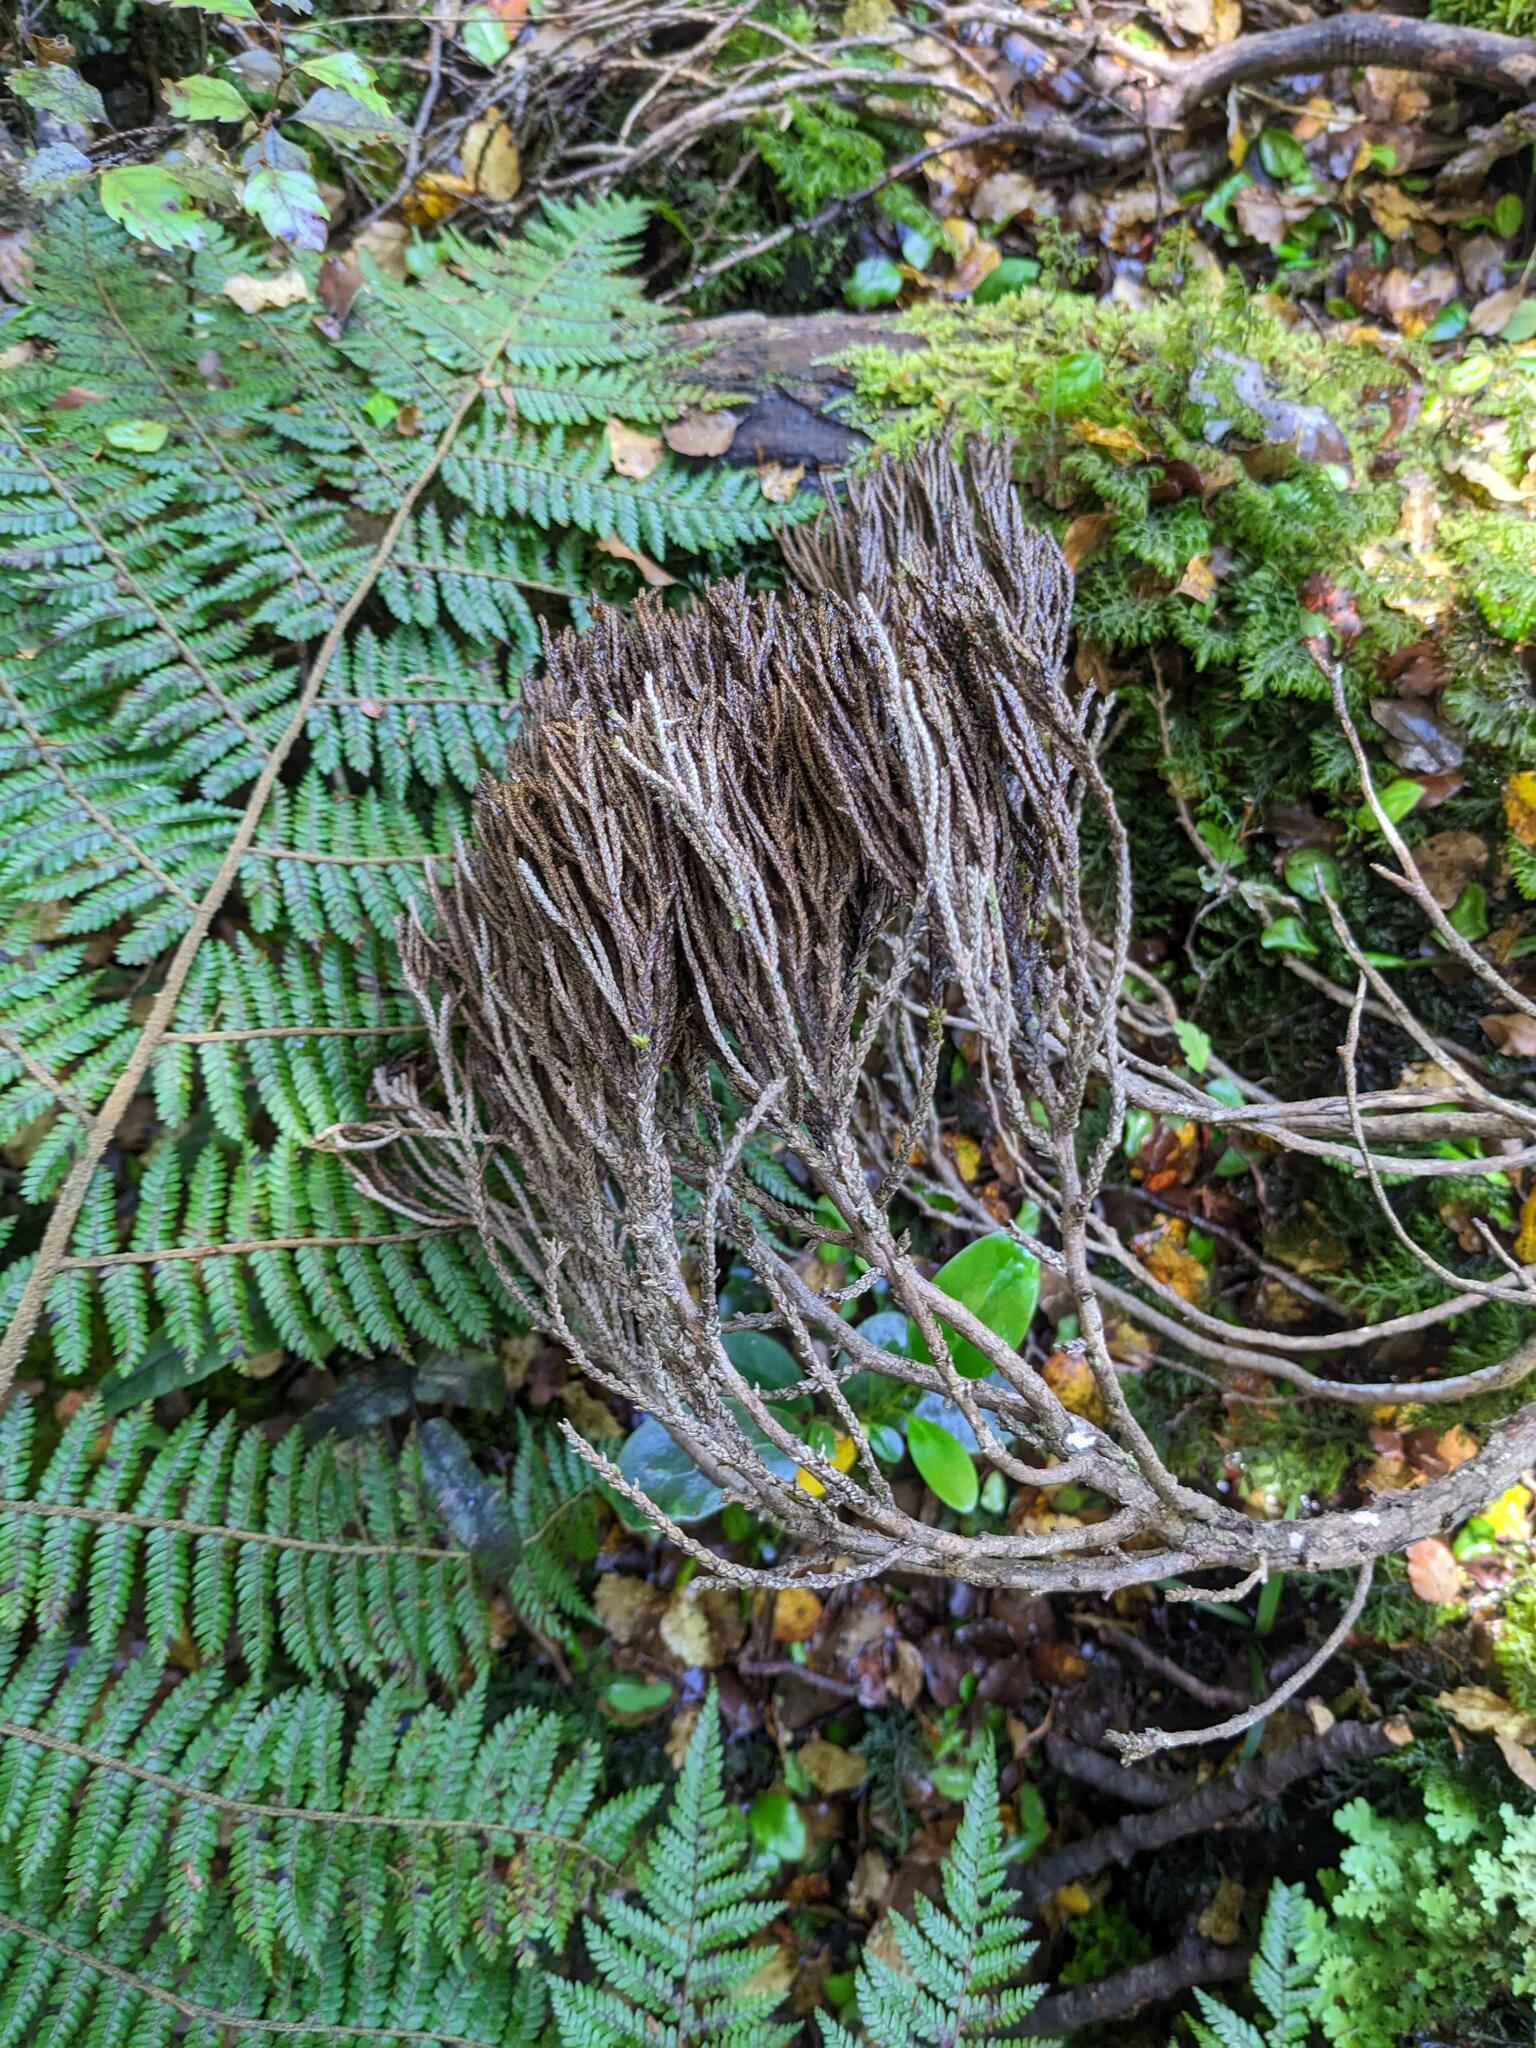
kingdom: Plantae
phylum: Tracheophyta
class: Pinopsida
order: Pinales
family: Cupressaceae
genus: Libocedrus
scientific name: Libocedrus bidwillii
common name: Cedar
